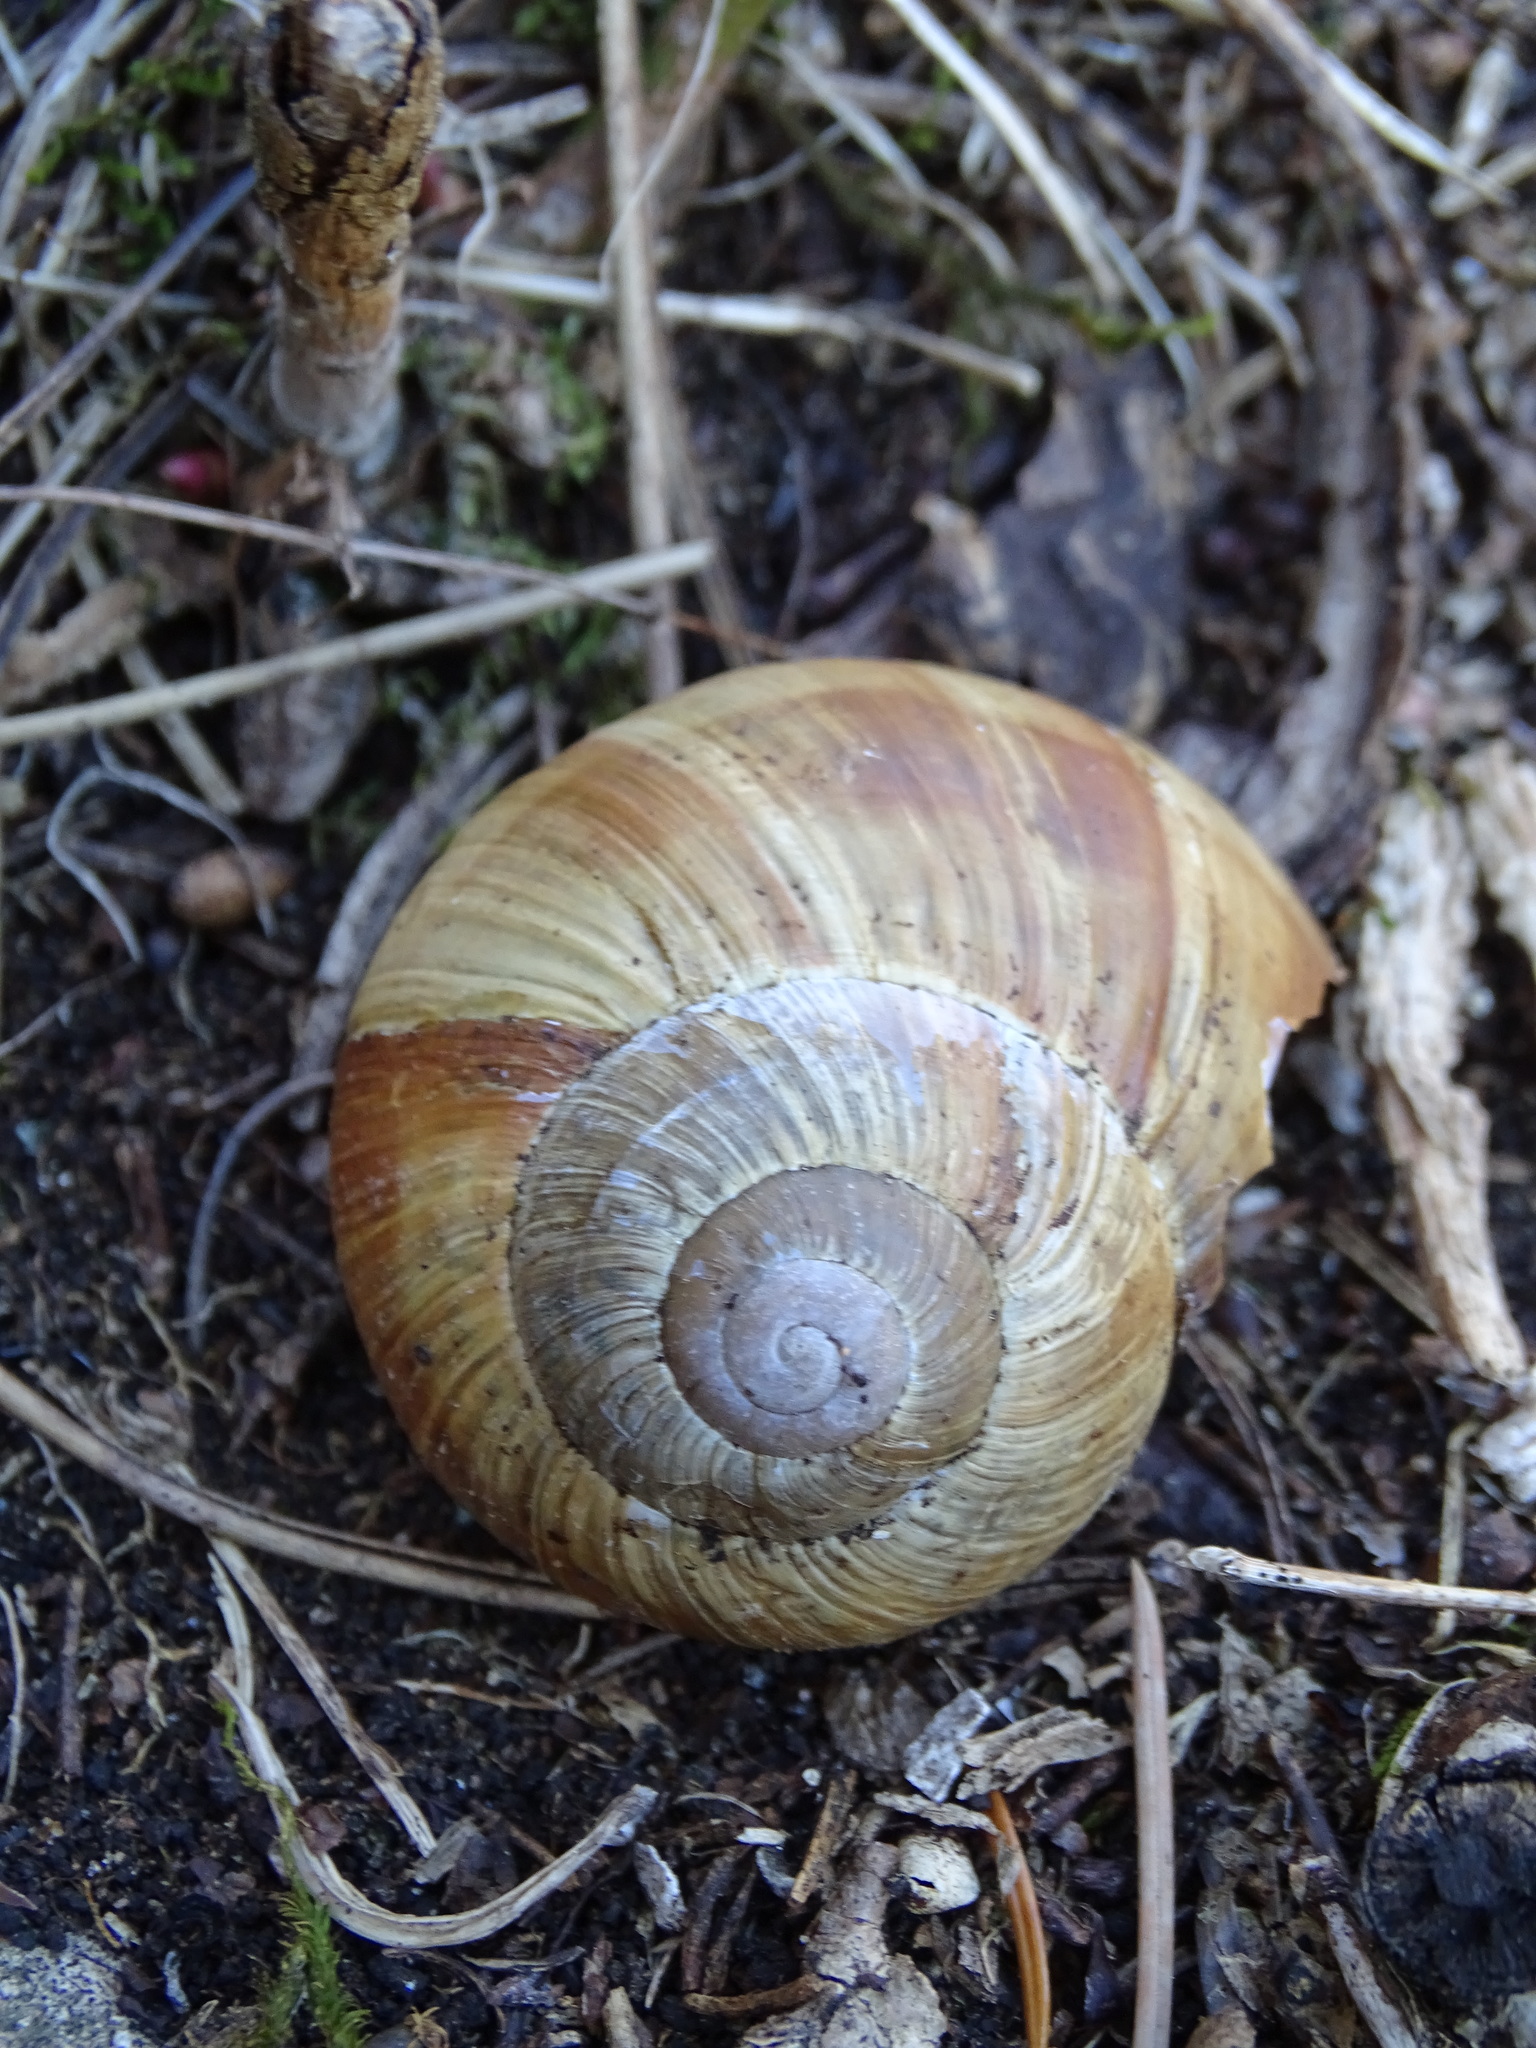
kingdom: Animalia
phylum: Mollusca
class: Gastropoda
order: Stylommatophora
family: Helicidae
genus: Helix
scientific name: Helix pomatia
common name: Roman snail
